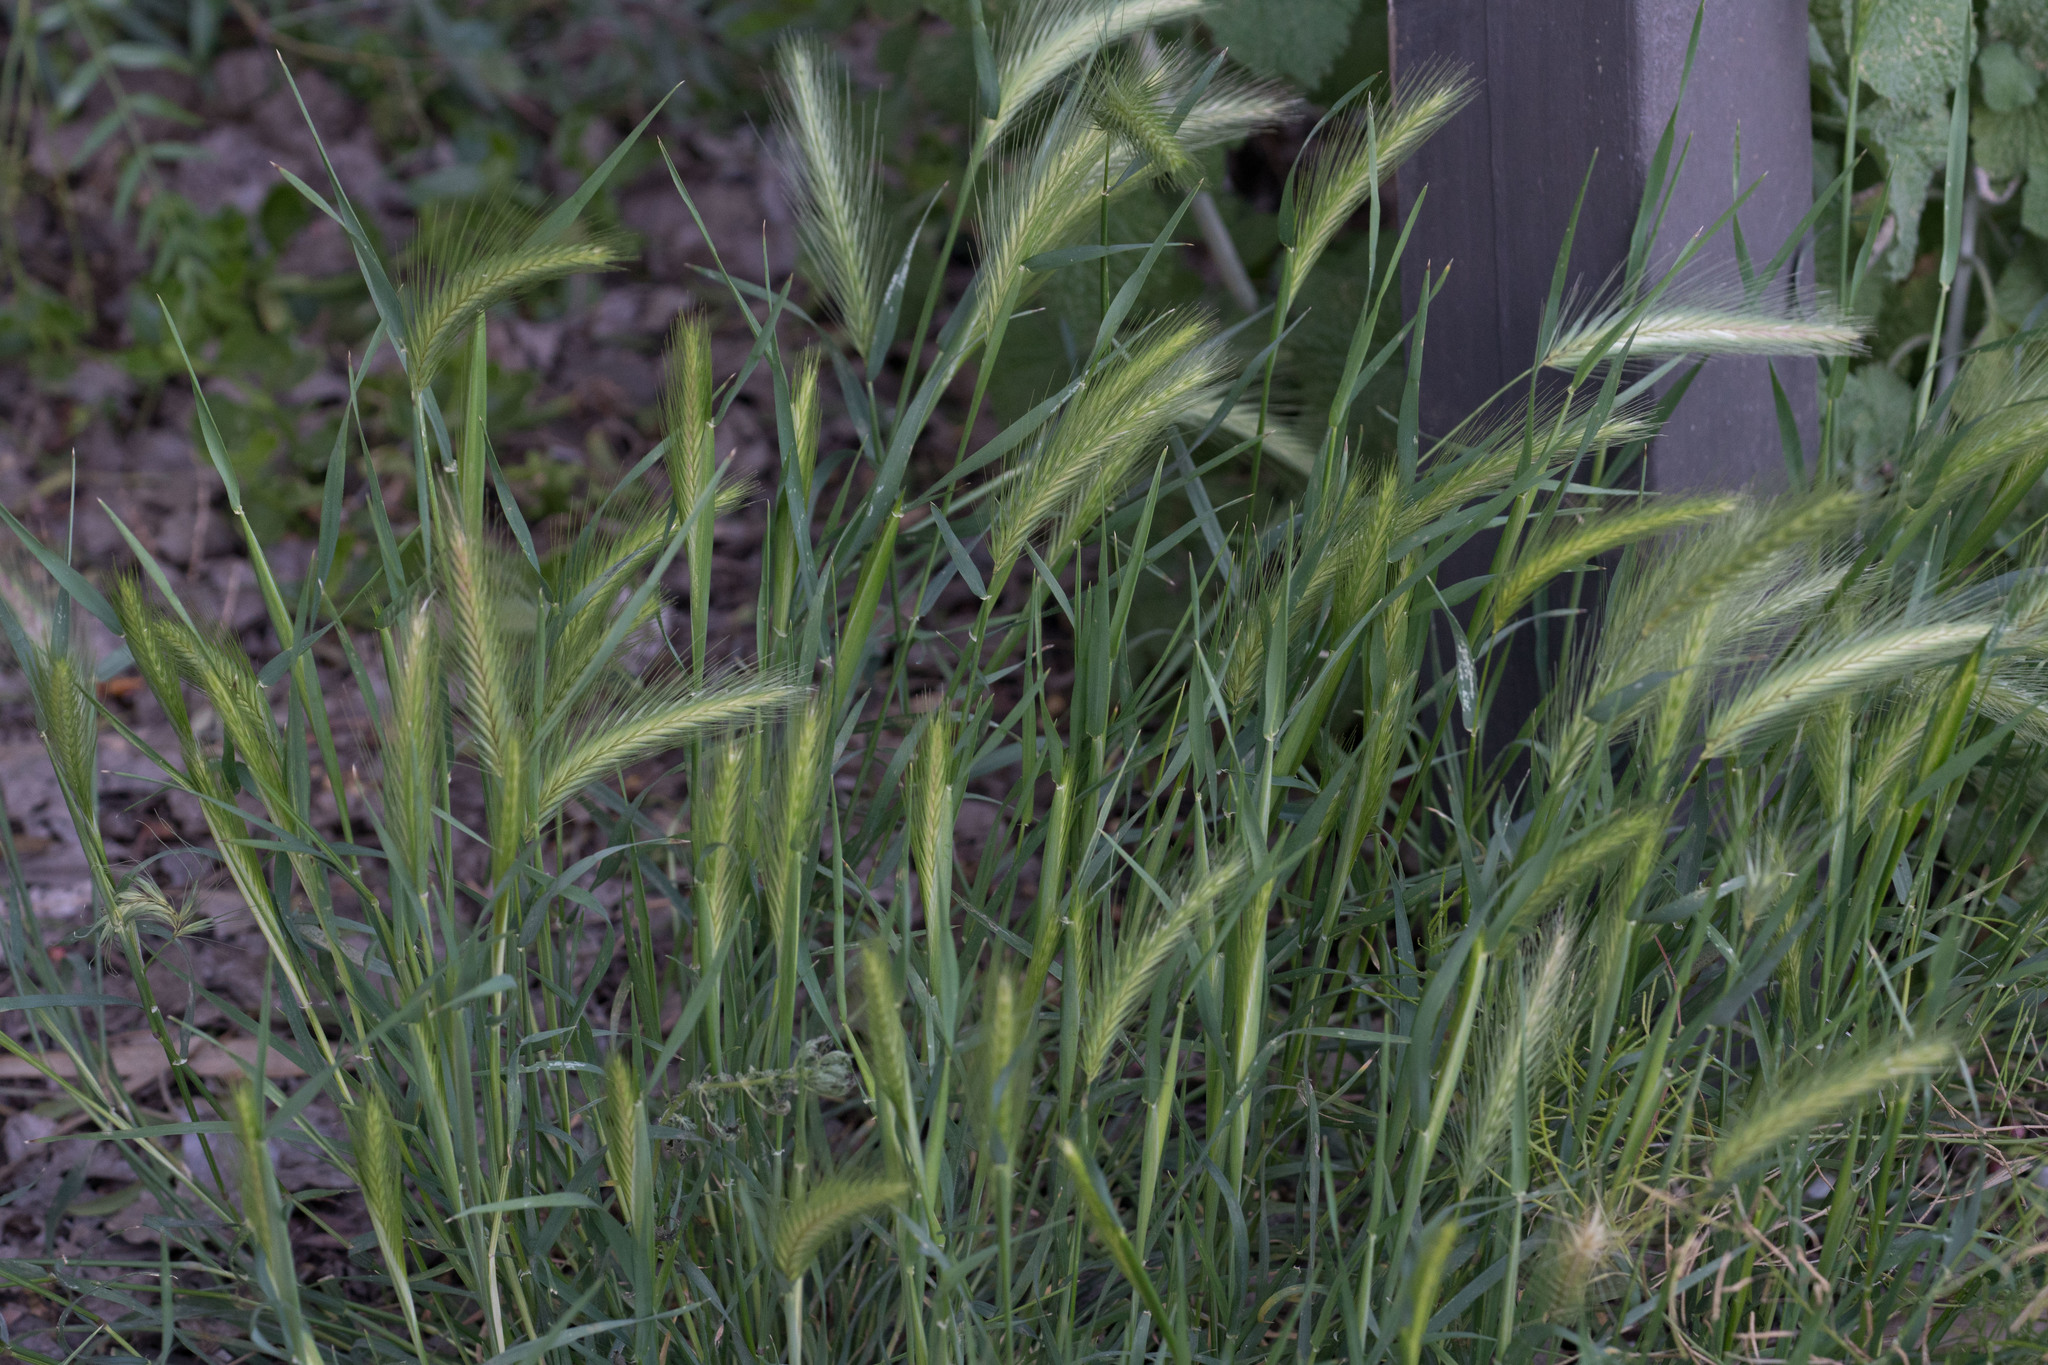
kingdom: Plantae
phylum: Tracheophyta
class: Liliopsida
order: Poales
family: Poaceae
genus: Hordeum
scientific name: Hordeum murinum
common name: Wall barley
